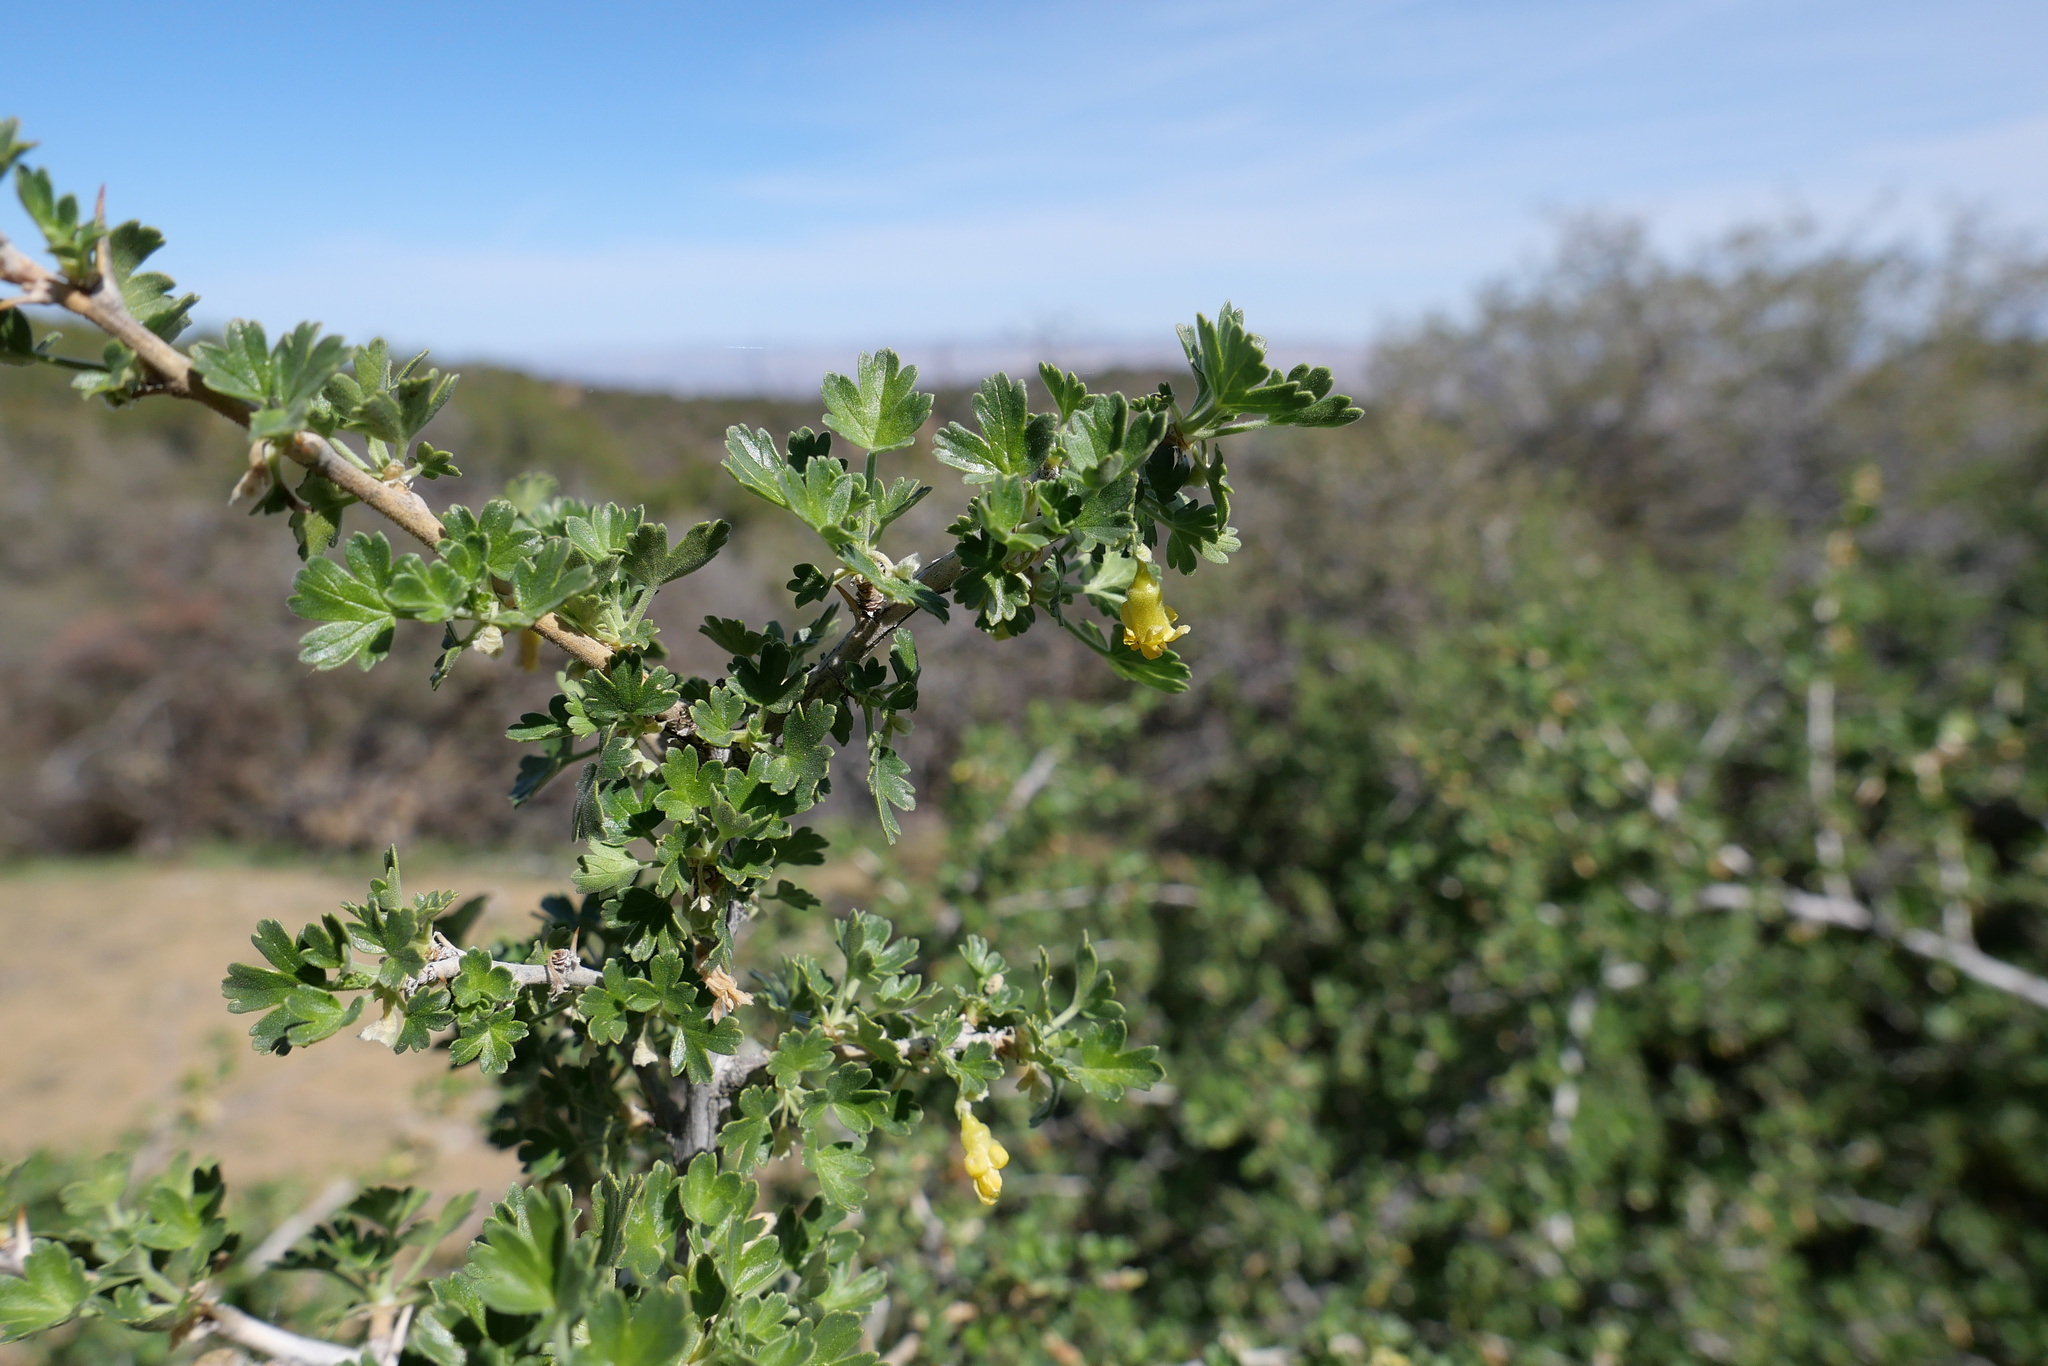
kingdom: Plantae
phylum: Tracheophyta
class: Magnoliopsida
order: Saxifragales
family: Grossulariaceae
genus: Ribes
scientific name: Ribes quercetorum
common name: Oak gooseberry
